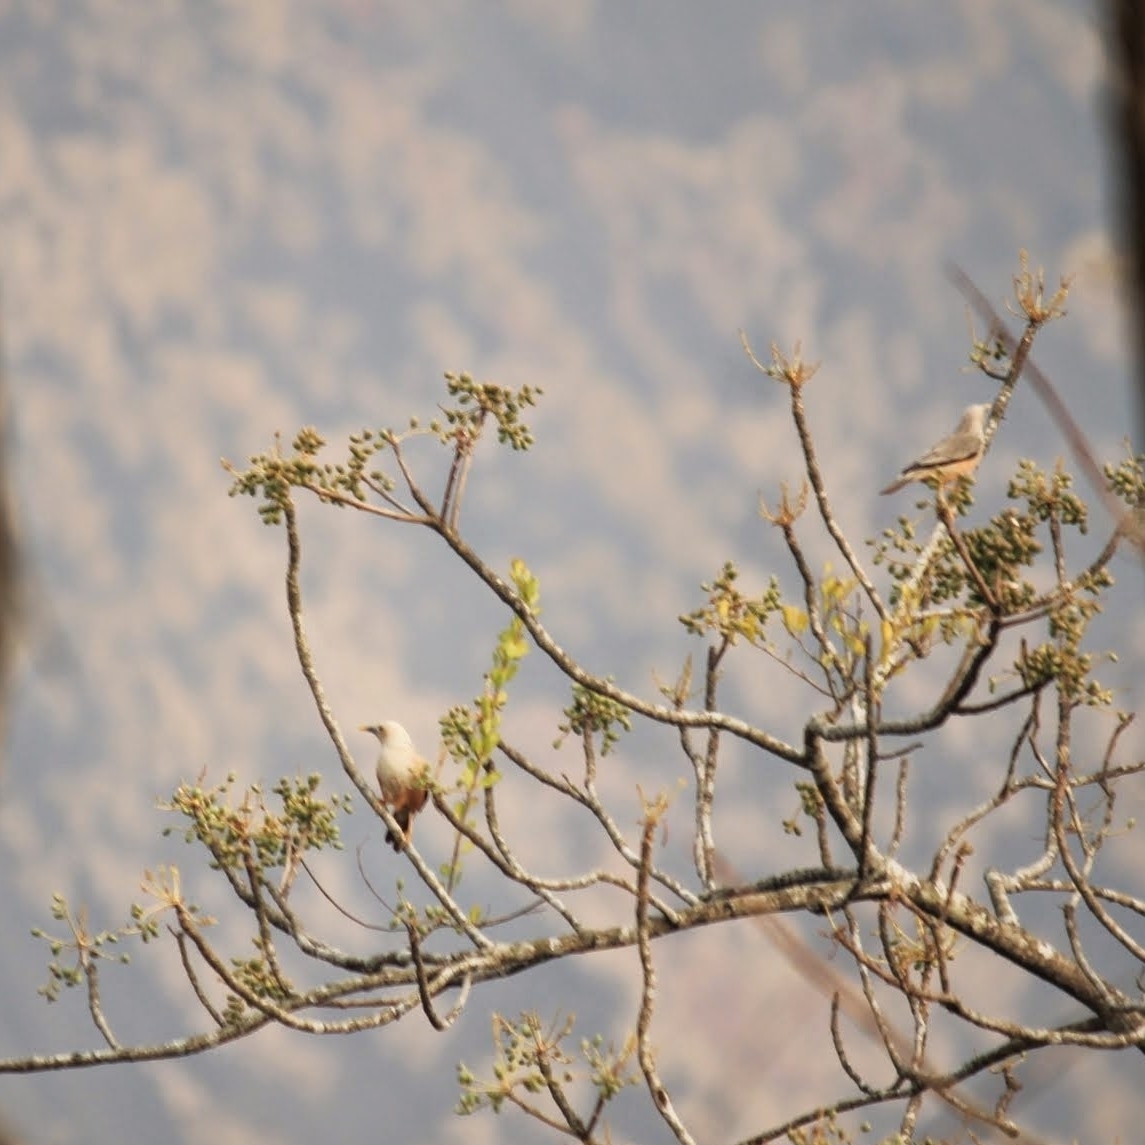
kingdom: Animalia
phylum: Chordata
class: Aves
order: Passeriformes
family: Sturnidae
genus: Sturnia
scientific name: Sturnia blythii
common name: Malabar starling
